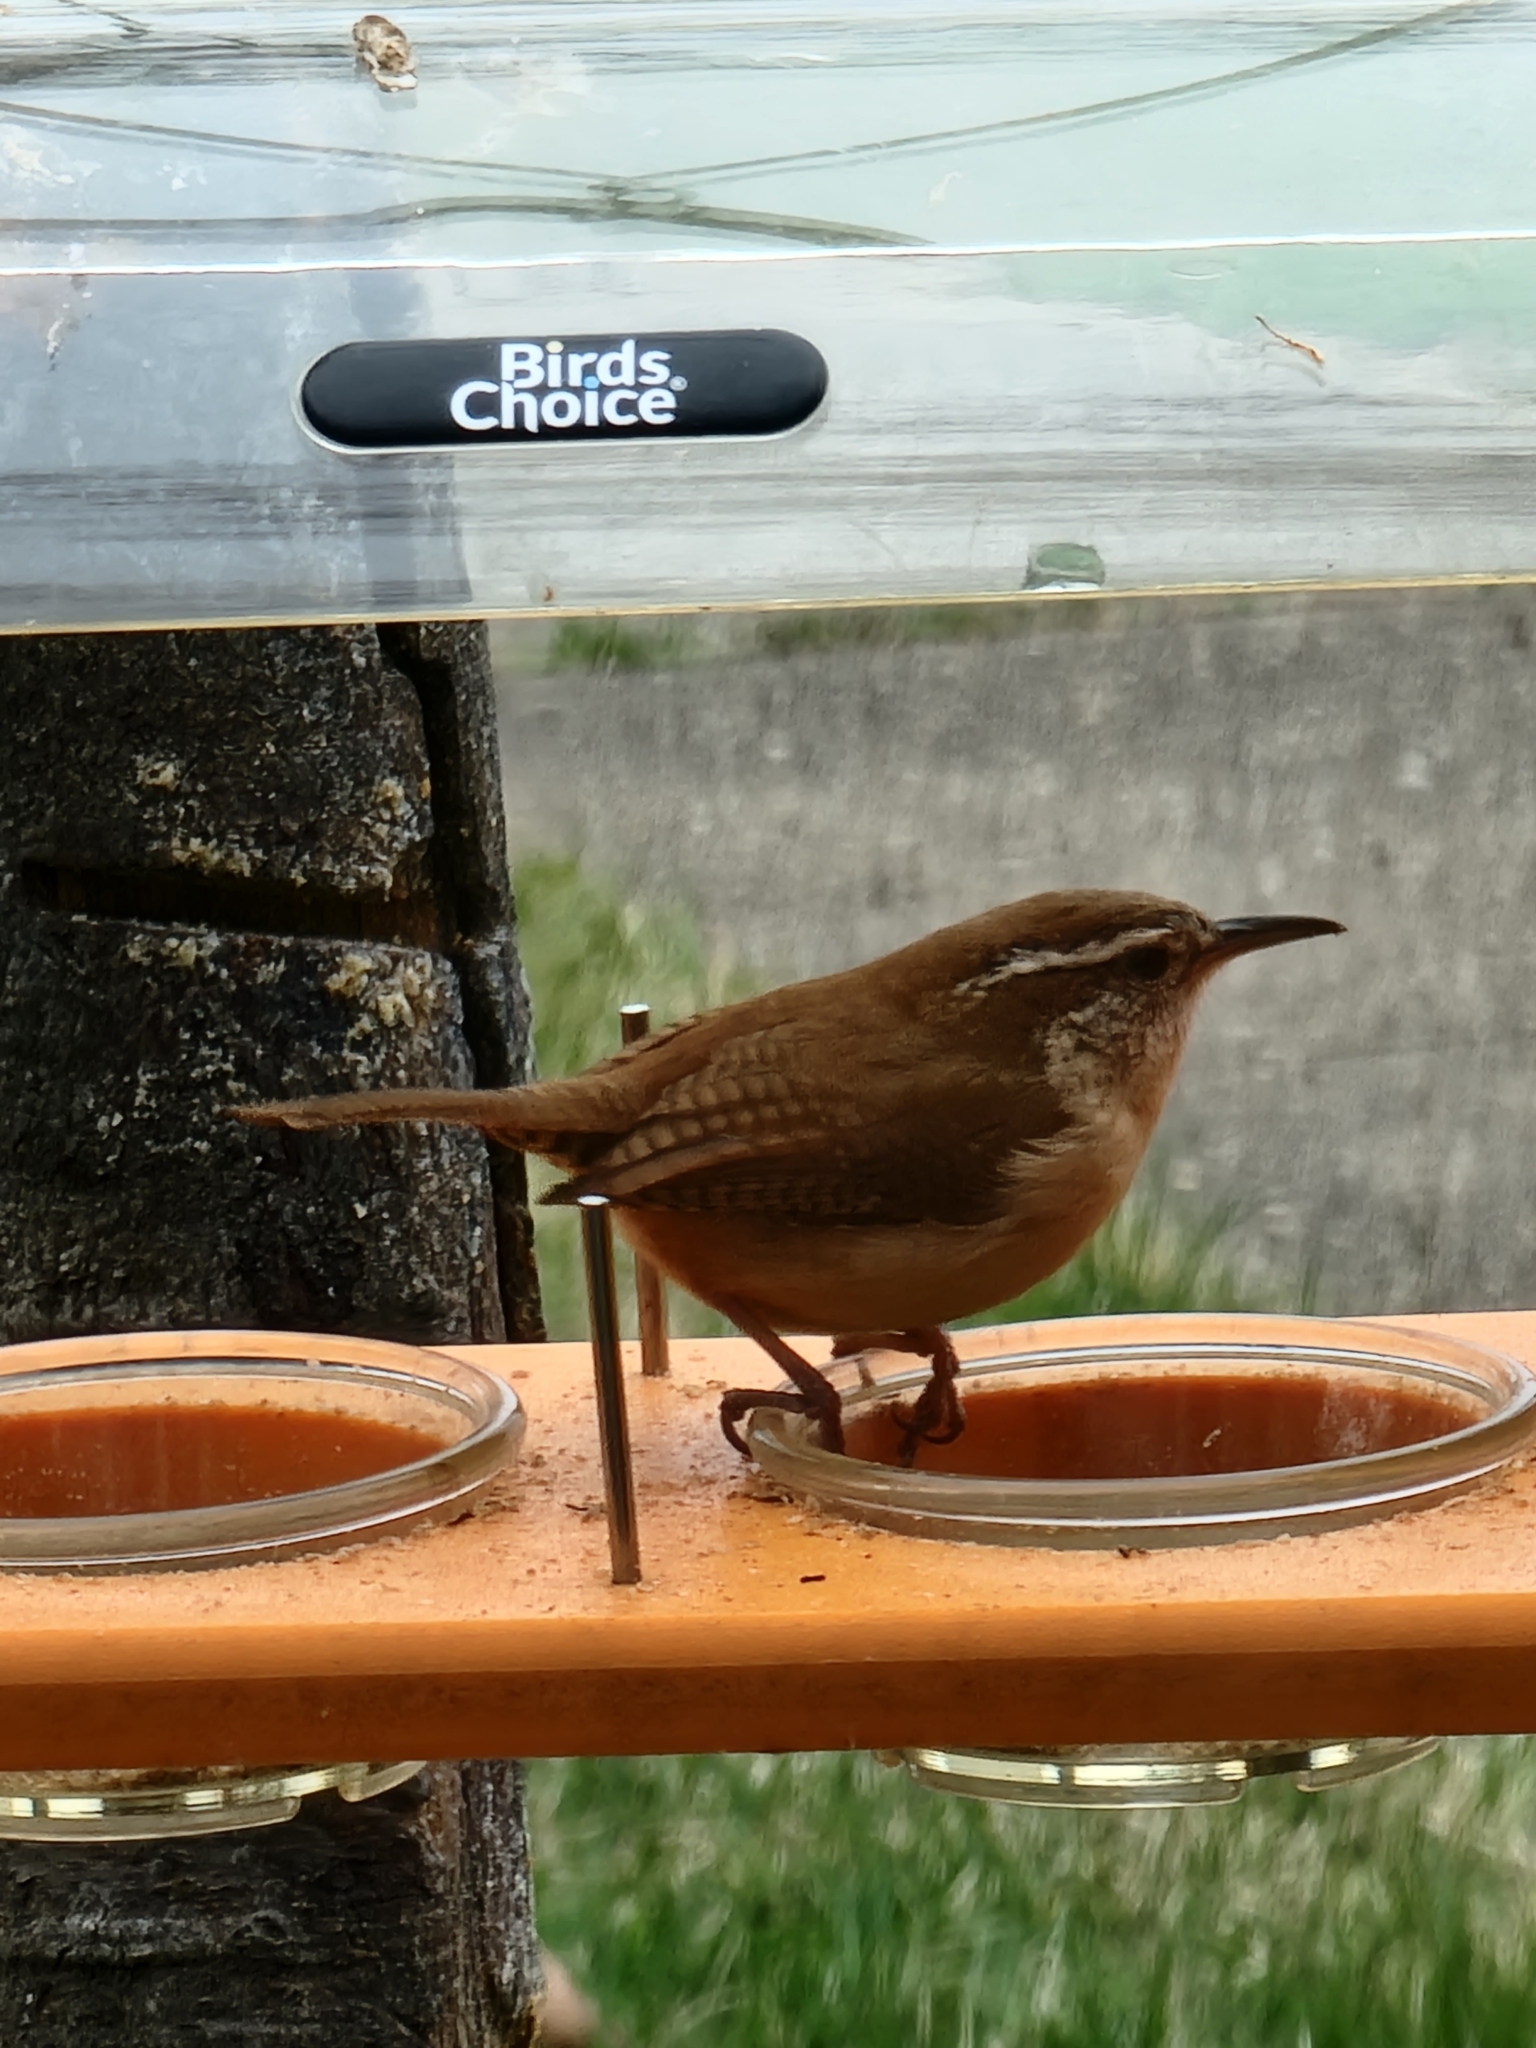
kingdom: Animalia
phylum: Chordata
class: Aves
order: Passeriformes
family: Troglodytidae
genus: Thryothorus
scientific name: Thryothorus ludovicianus
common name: Carolina wren
